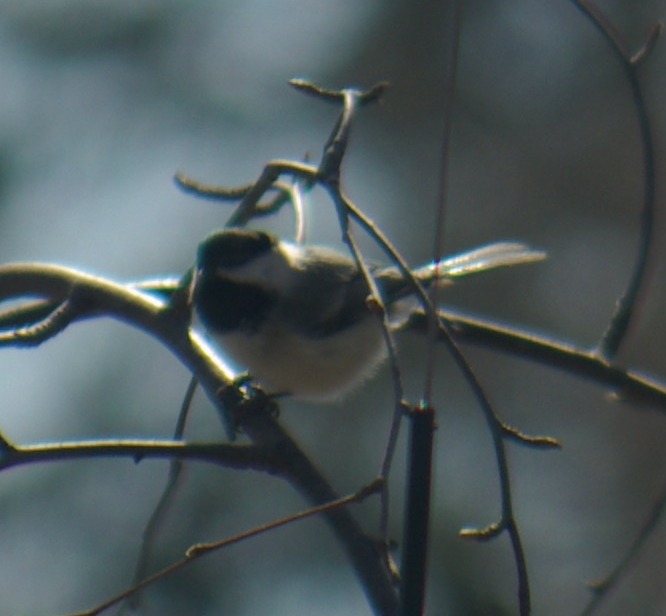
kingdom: Animalia
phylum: Chordata
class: Aves
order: Passeriformes
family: Paridae
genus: Poecile
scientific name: Poecile atricapillus
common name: Black-capped chickadee
